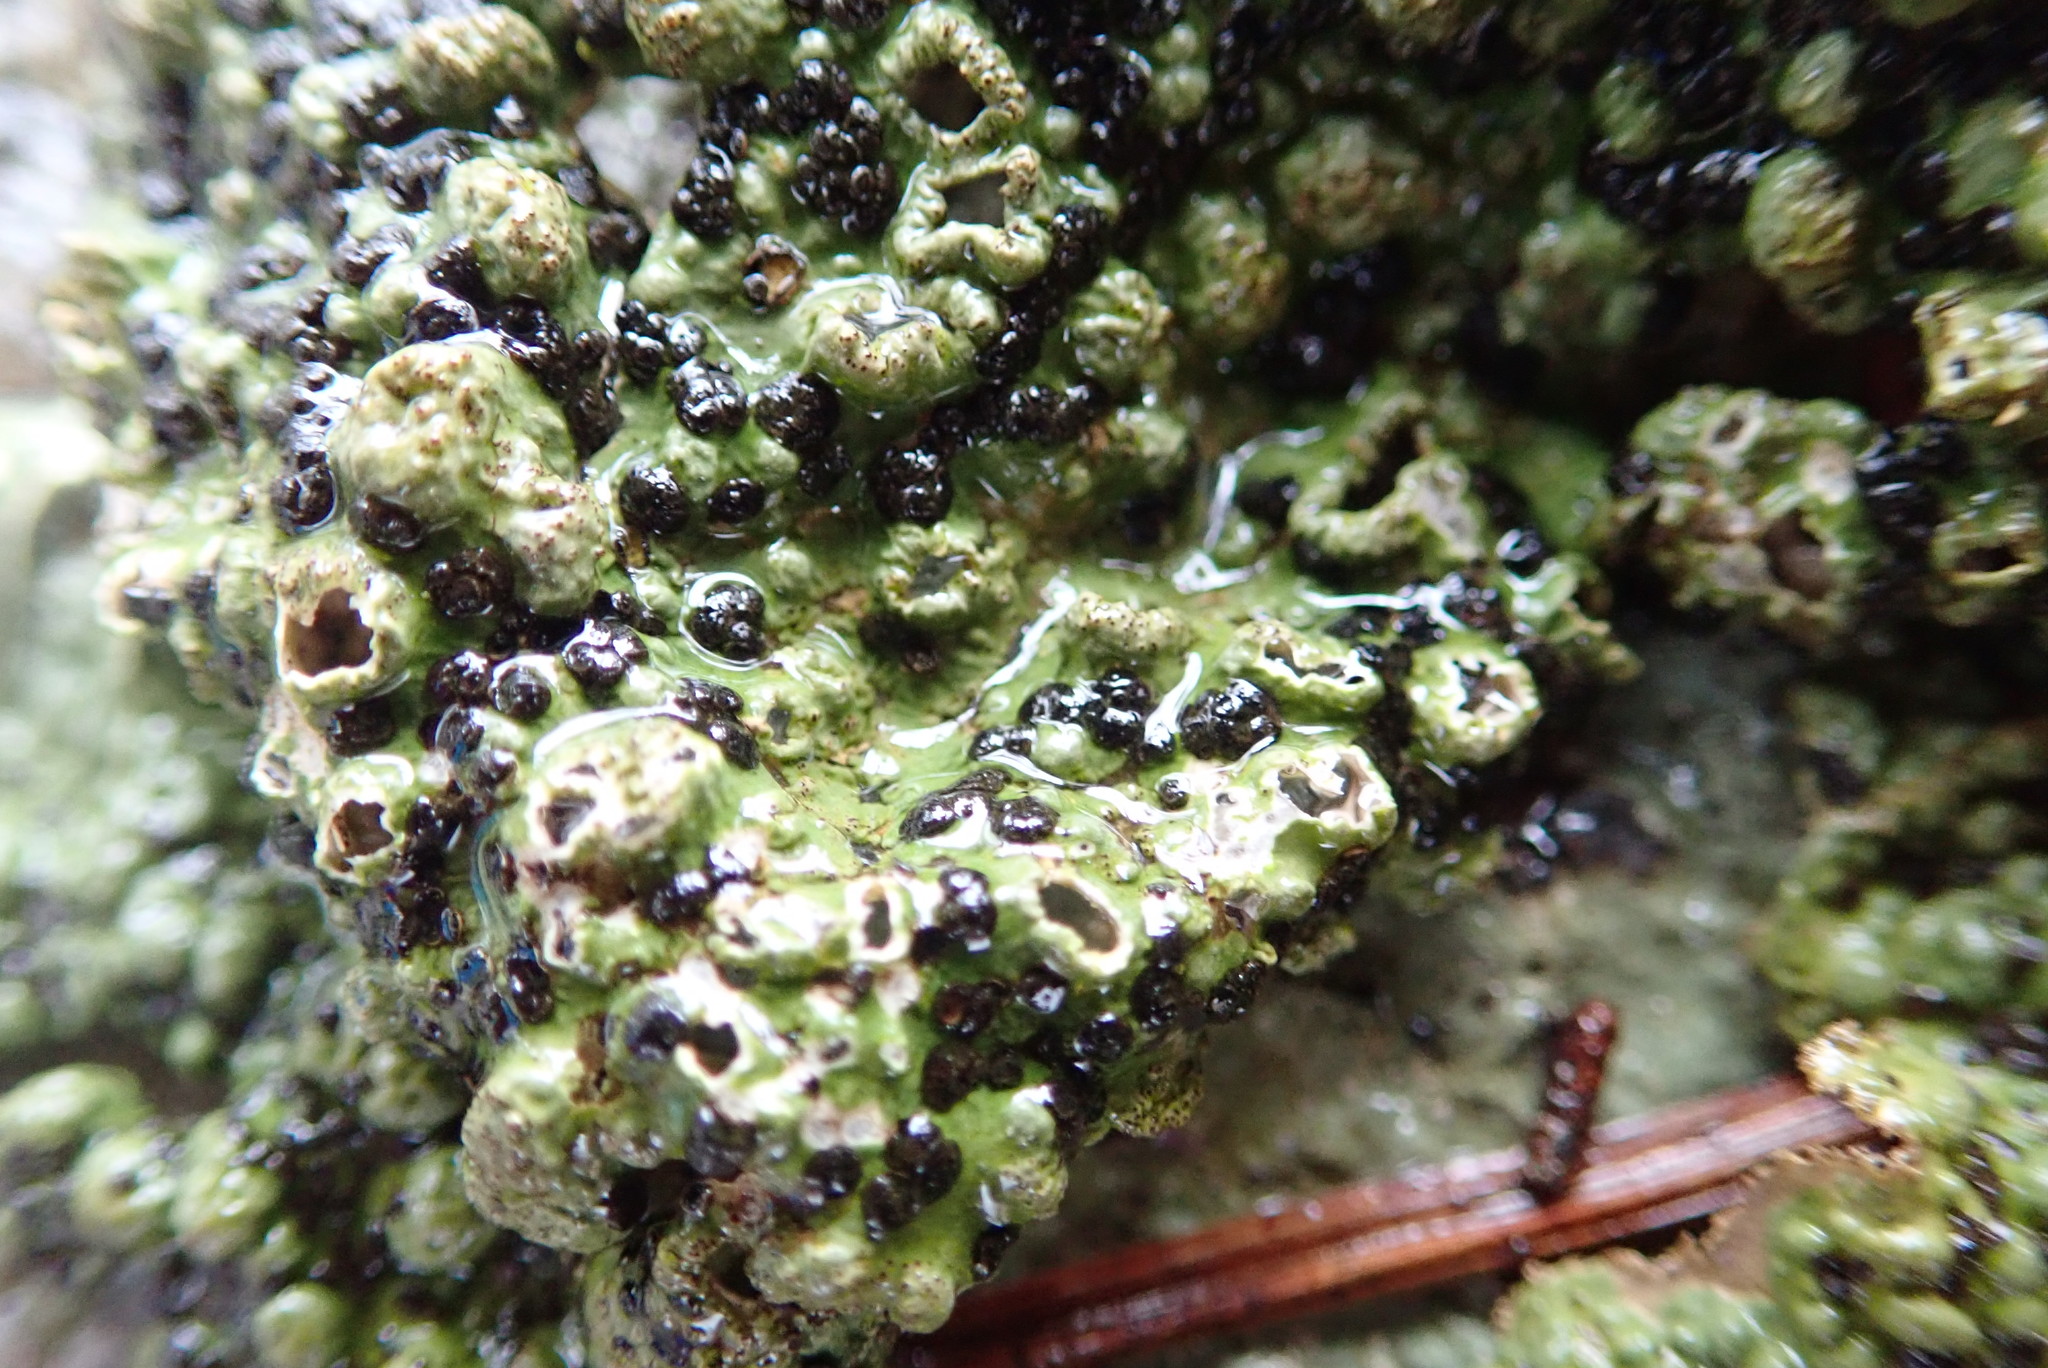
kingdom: Fungi
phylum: Ascomycota
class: Lecanoromycetes
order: Umbilicariales
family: Umbilicariaceae
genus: Lasallia
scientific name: Lasallia papulosa
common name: Common toadskin lichen
